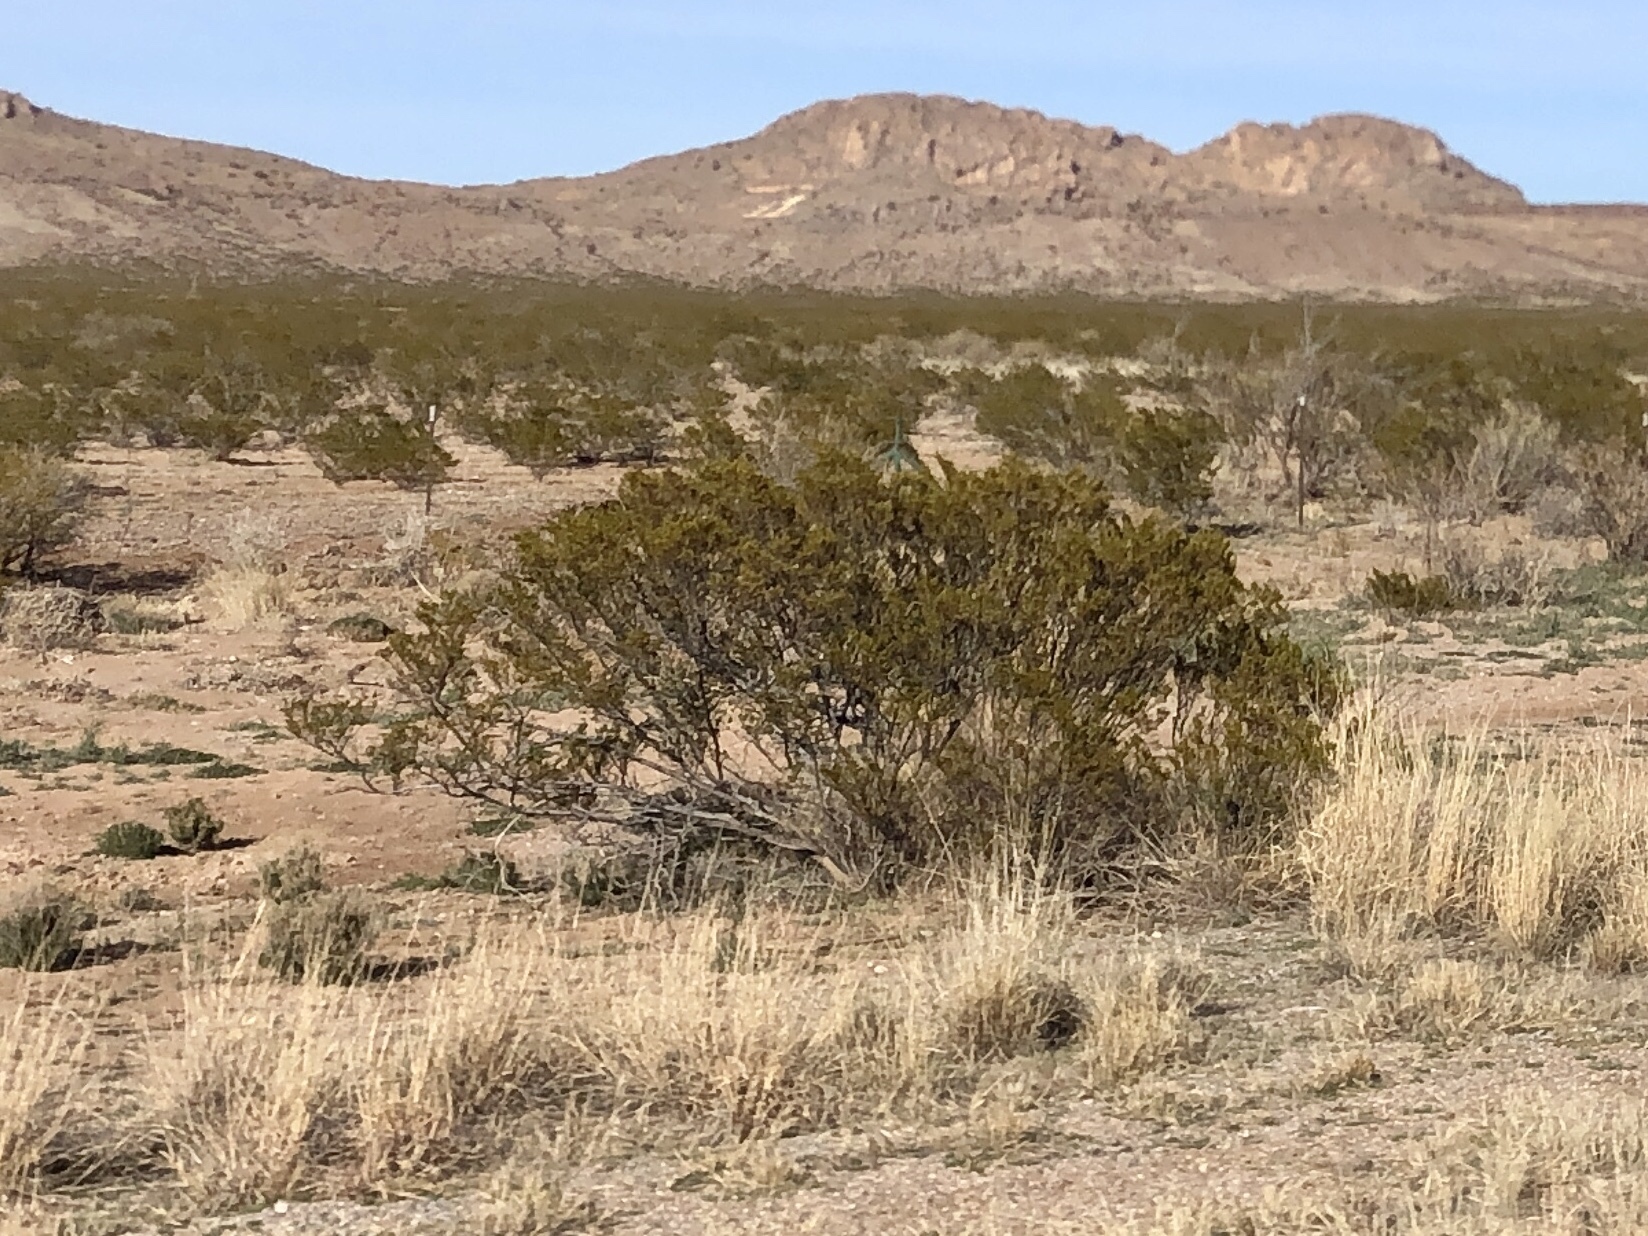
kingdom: Plantae
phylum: Tracheophyta
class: Magnoliopsida
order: Zygophyllales
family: Zygophyllaceae
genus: Larrea
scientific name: Larrea tridentata
